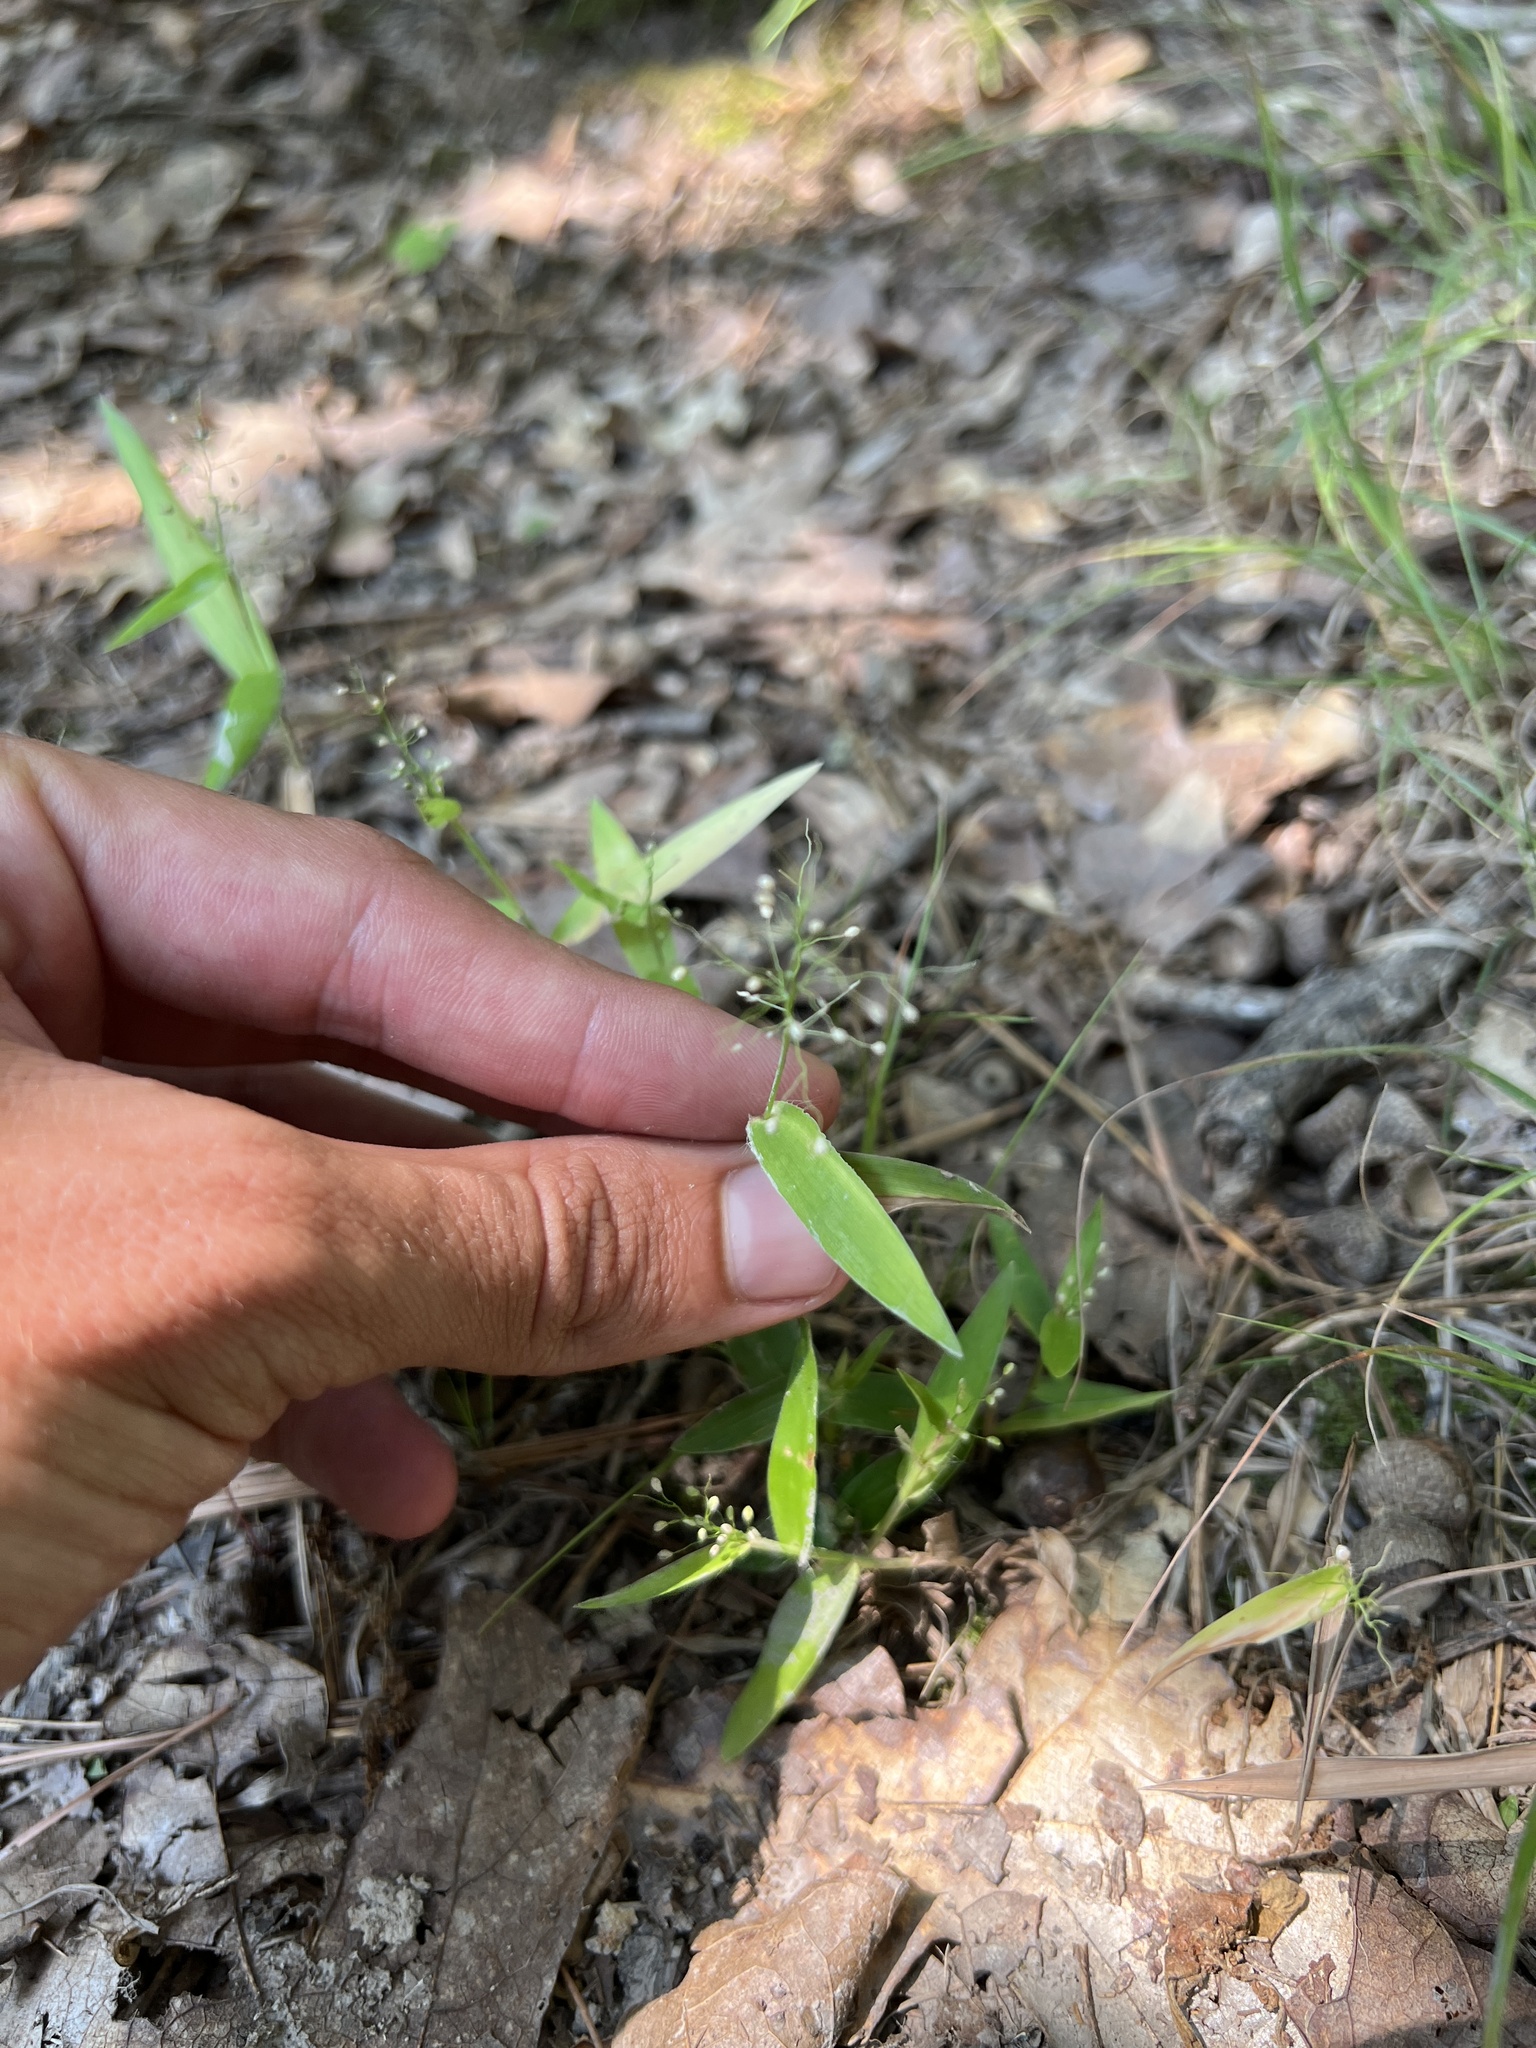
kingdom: Plantae
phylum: Tracheophyta
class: Liliopsida
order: Poales
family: Poaceae
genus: Dichanthelium
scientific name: Dichanthelium sphaerocarpon
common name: Round-fruited panicgrass
